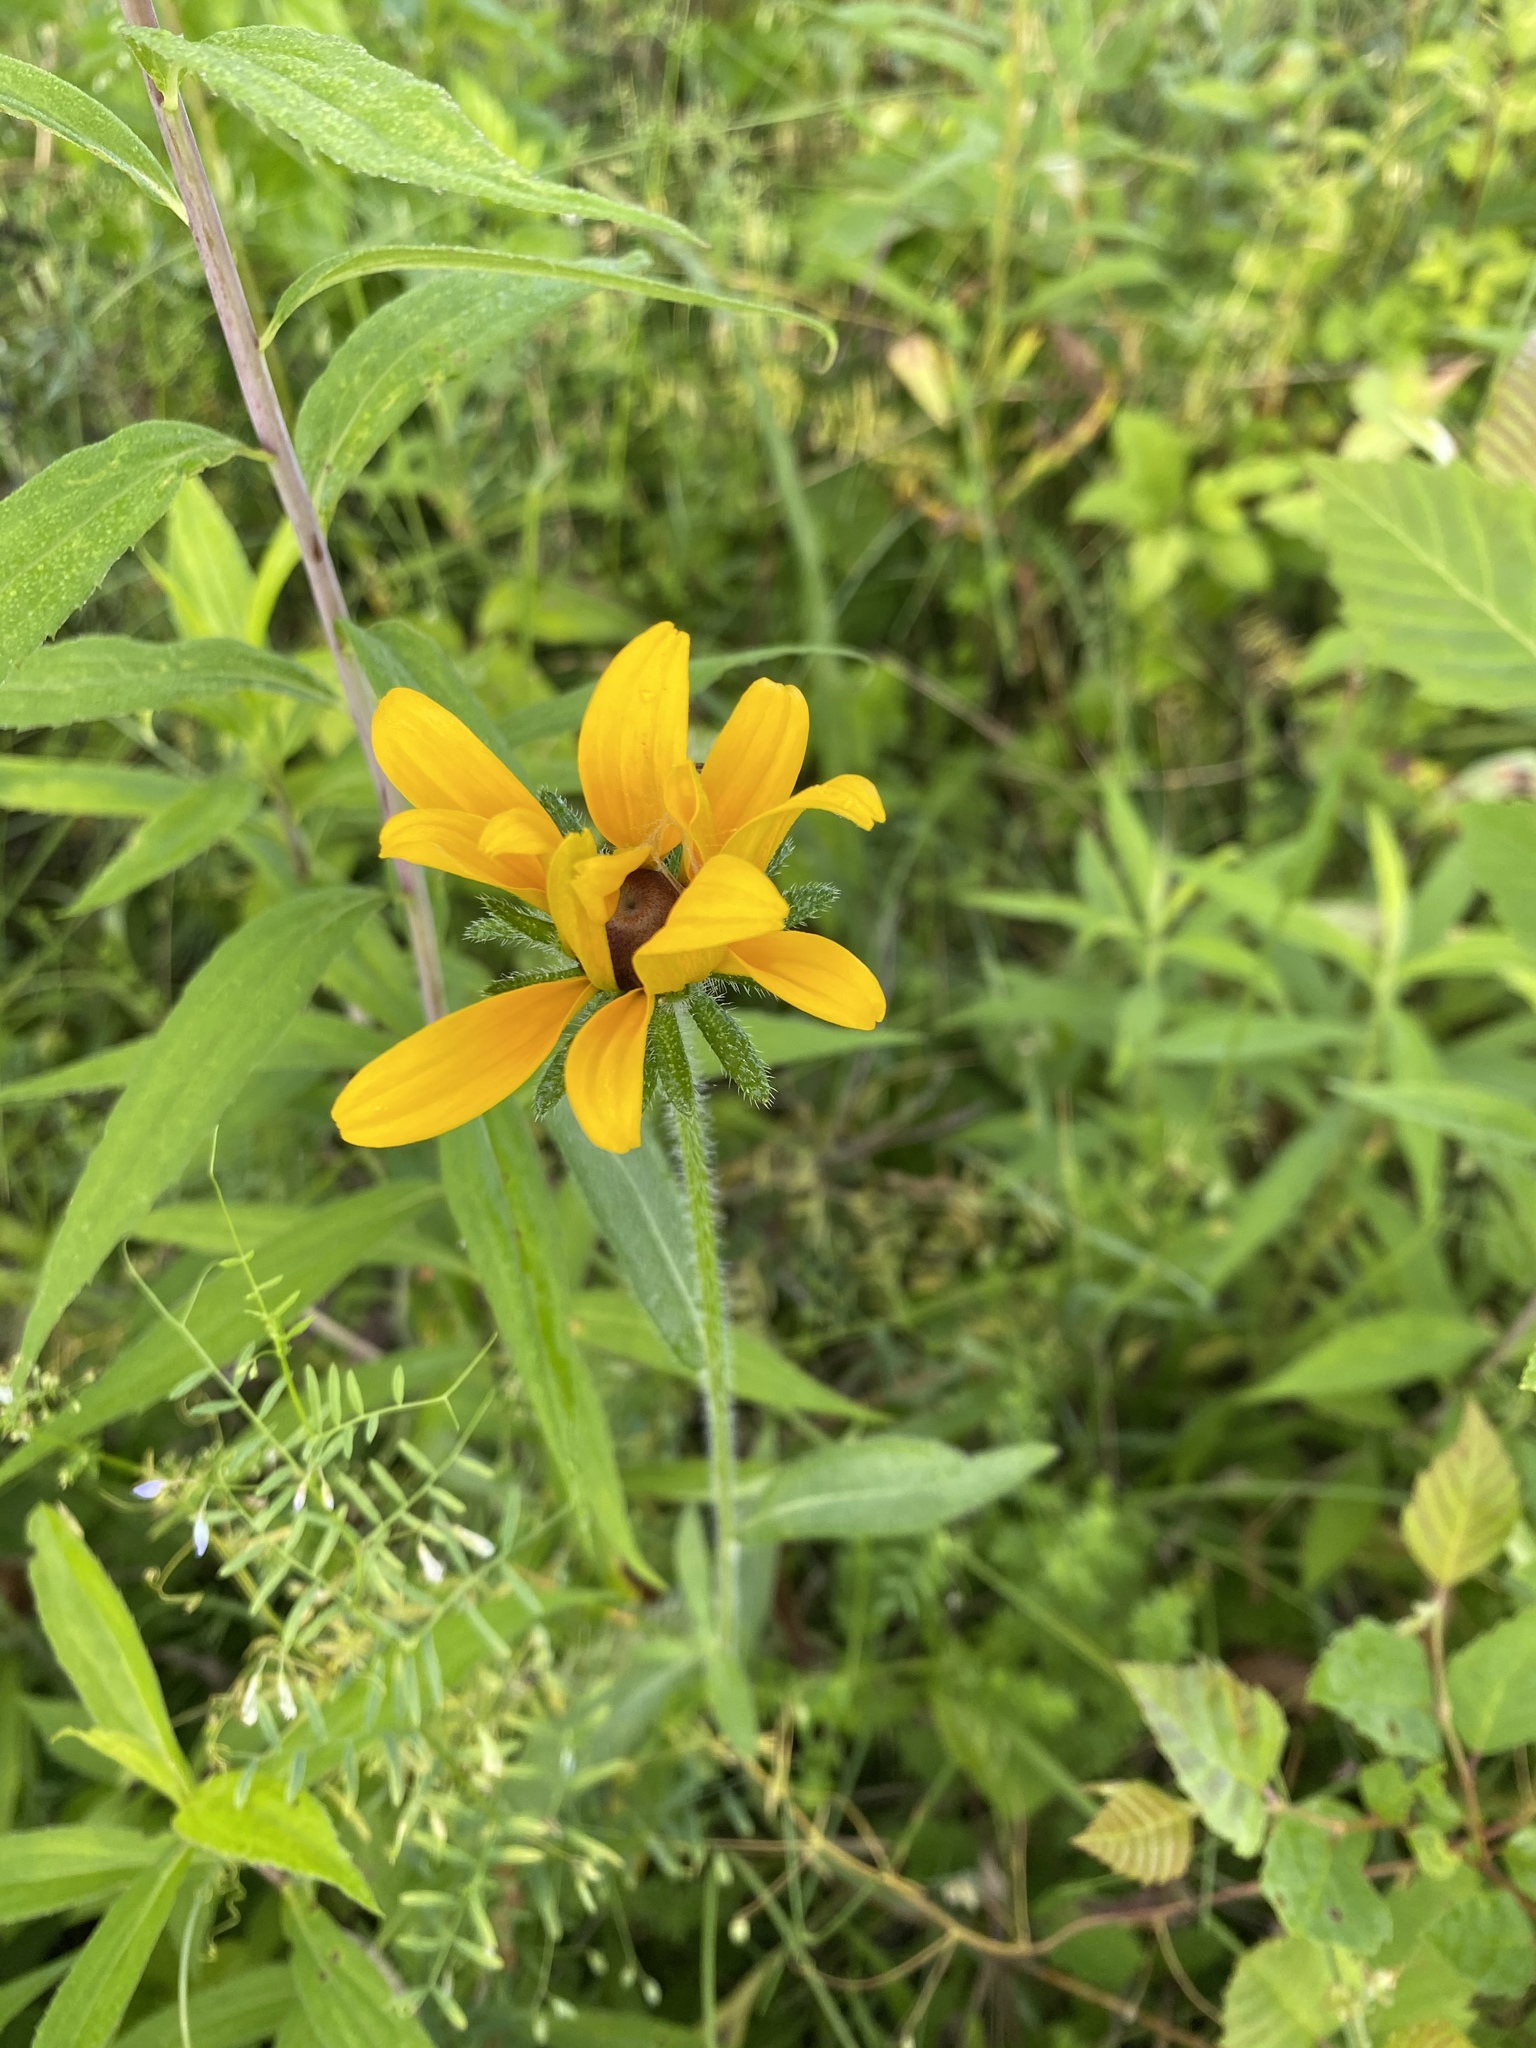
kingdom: Plantae
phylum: Tracheophyta
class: Magnoliopsida
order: Asterales
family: Asteraceae
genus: Rudbeckia
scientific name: Rudbeckia hirta
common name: Black-eyed-susan
